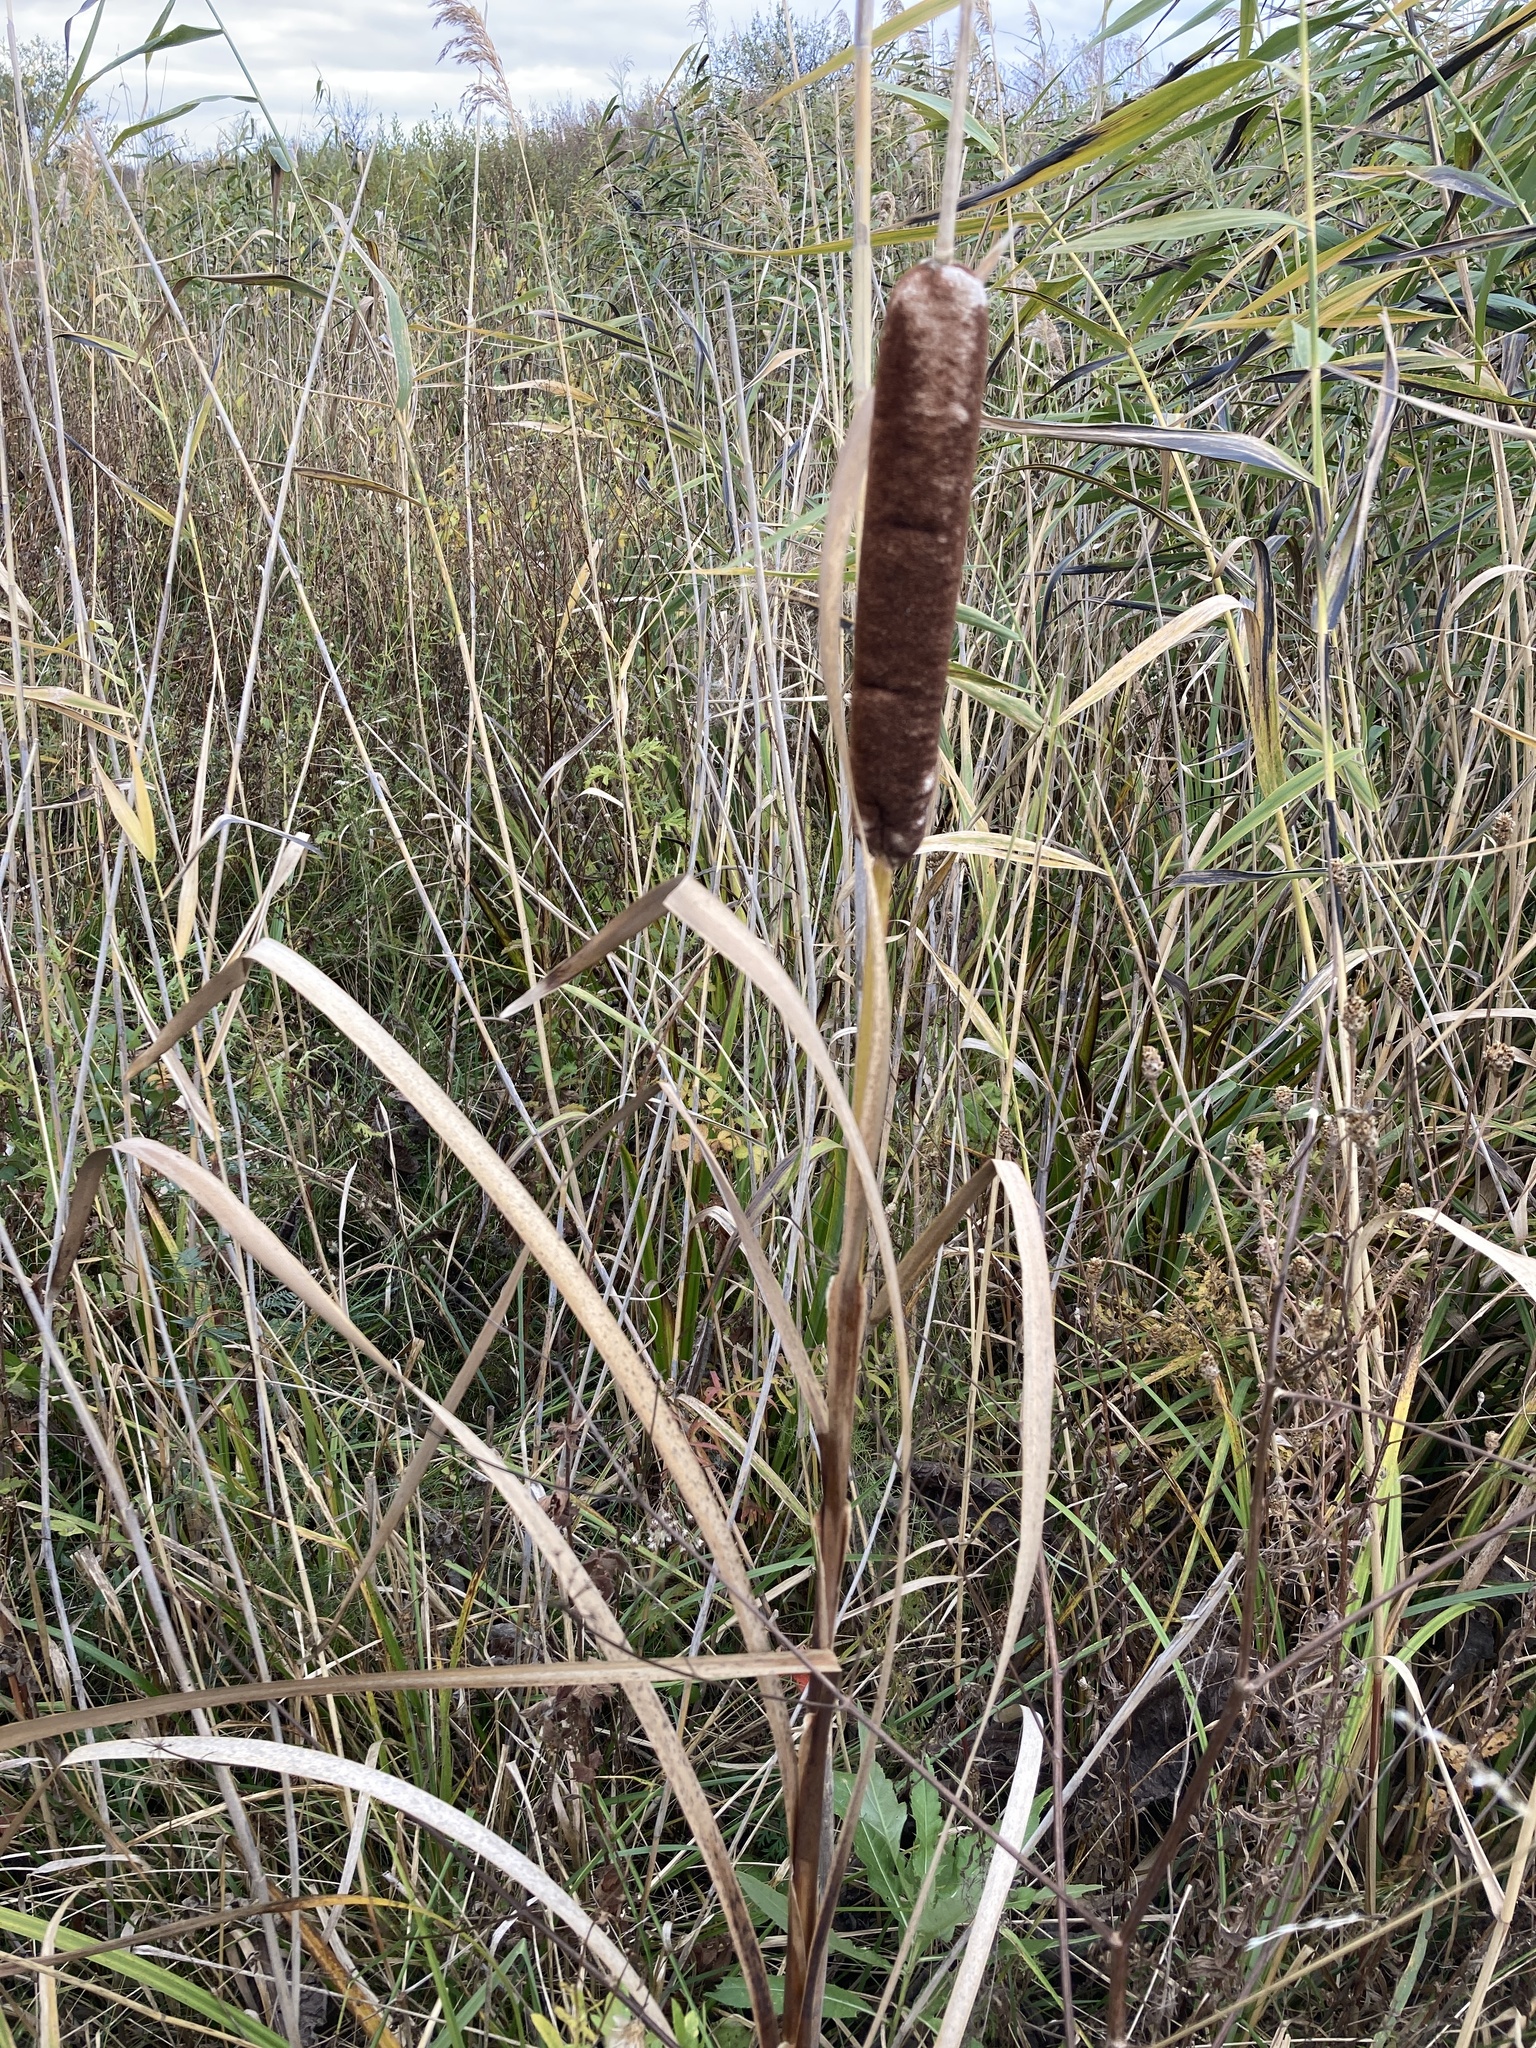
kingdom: Plantae
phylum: Tracheophyta
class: Liliopsida
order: Poales
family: Typhaceae
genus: Typha
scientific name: Typha latifolia
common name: Broadleaf cattail
